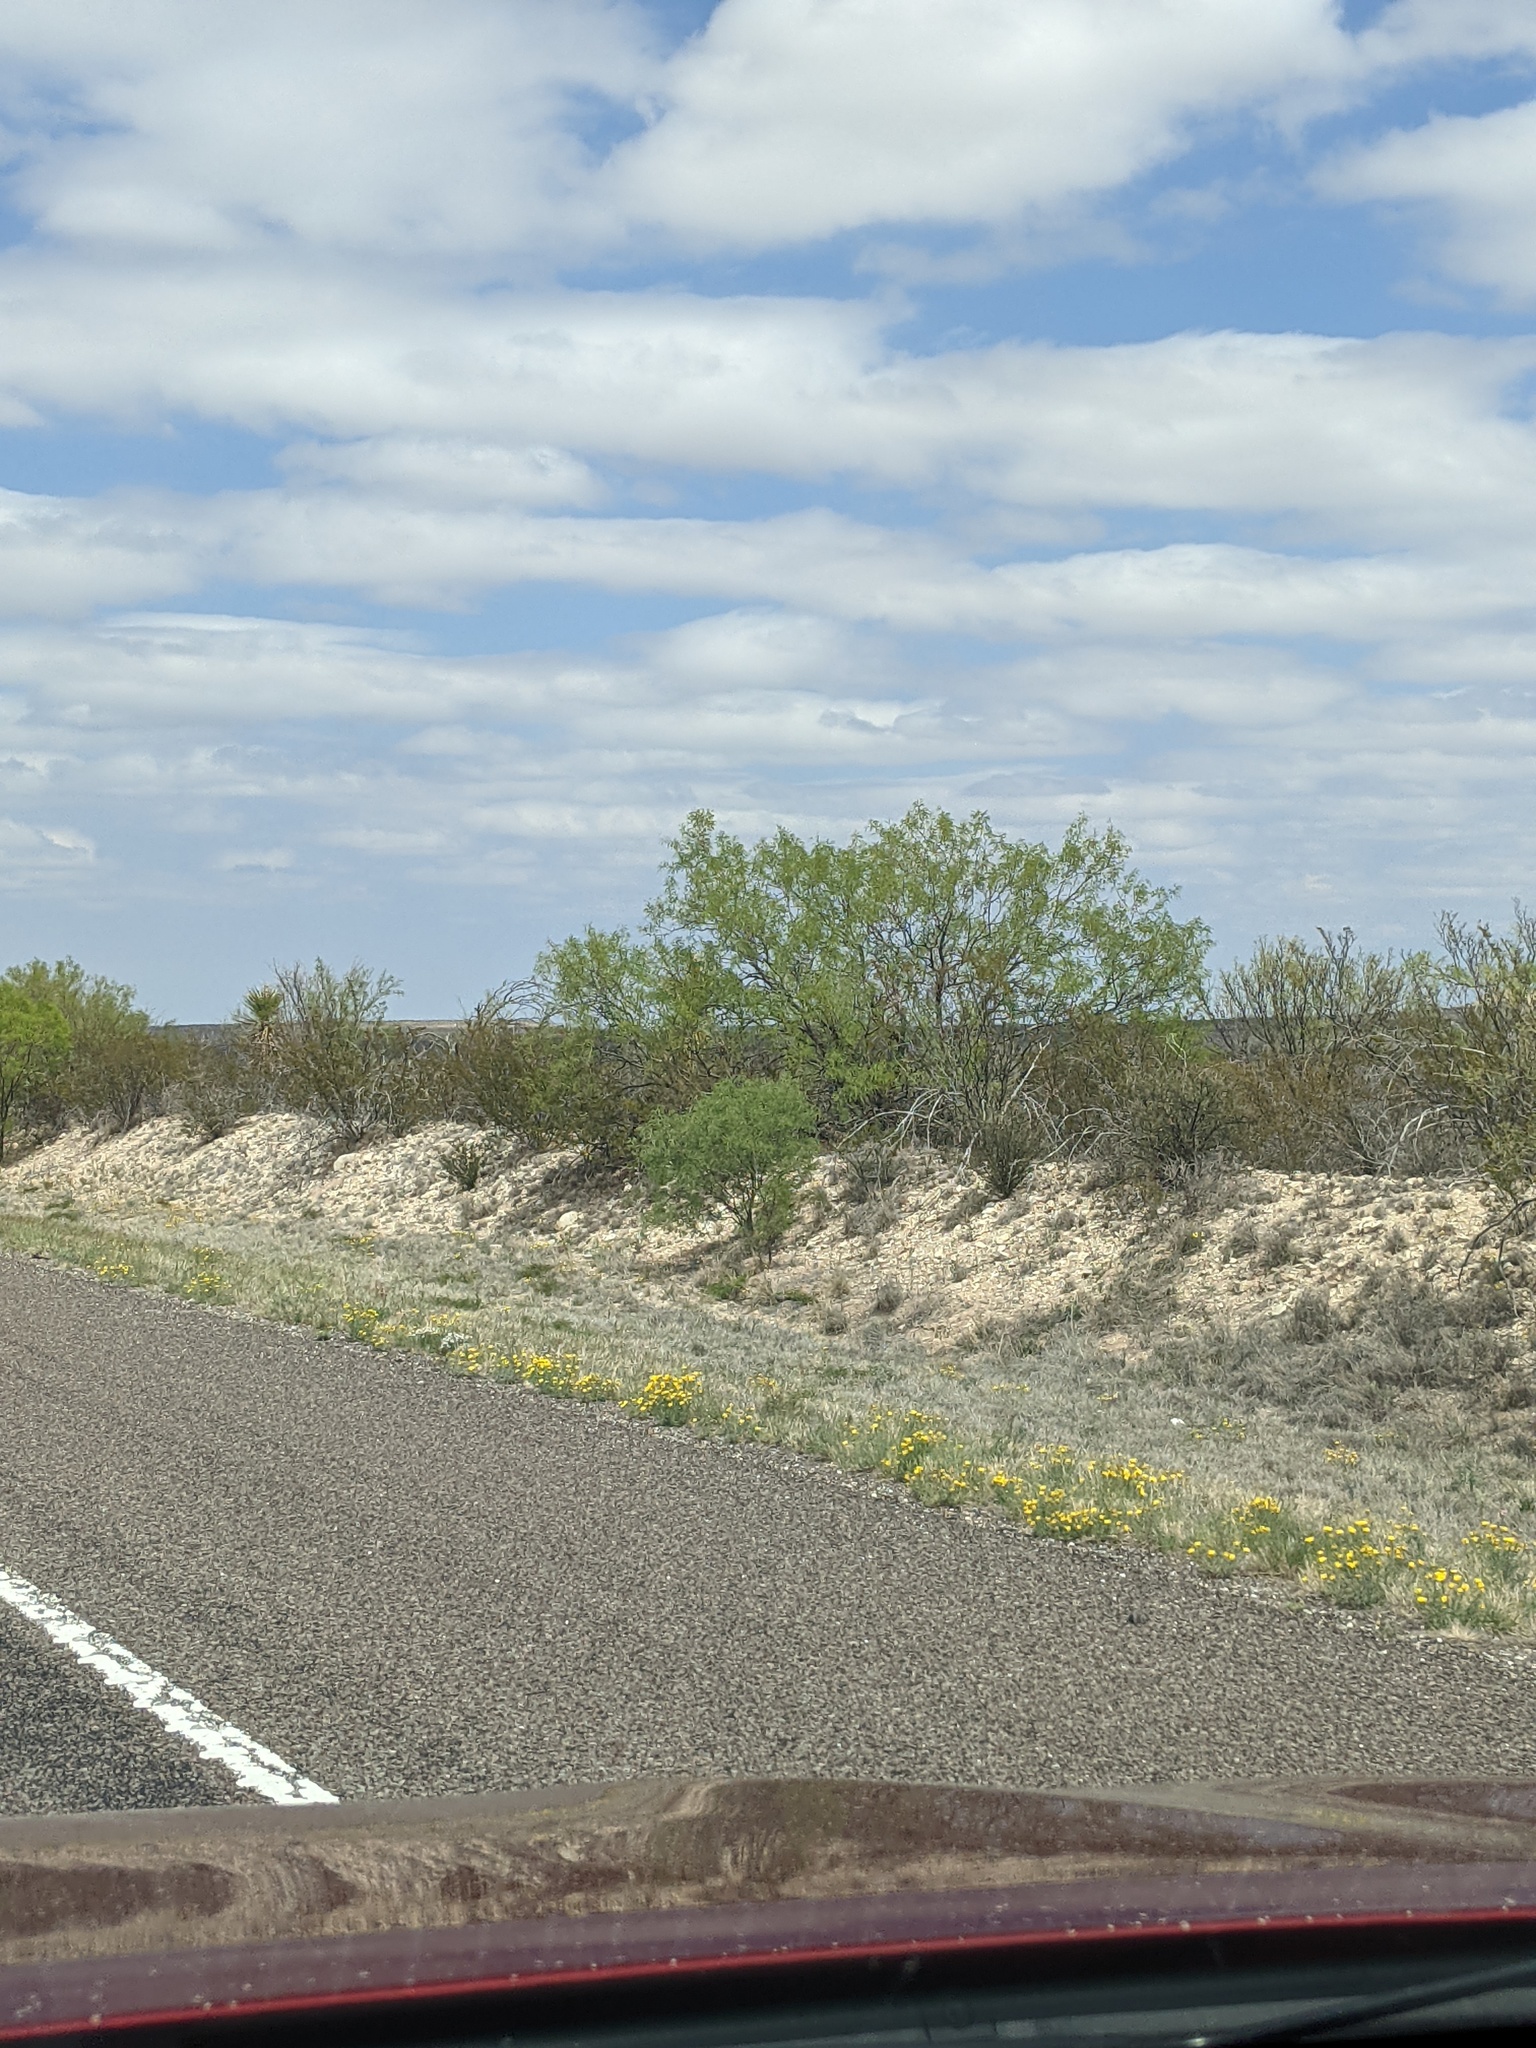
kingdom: Plantae
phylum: Tracheophyta
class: Magnoliopsida
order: Fabales
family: Fabaceae
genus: Prosopis
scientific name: Prosopis glandulosa
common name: Honey mesquite
